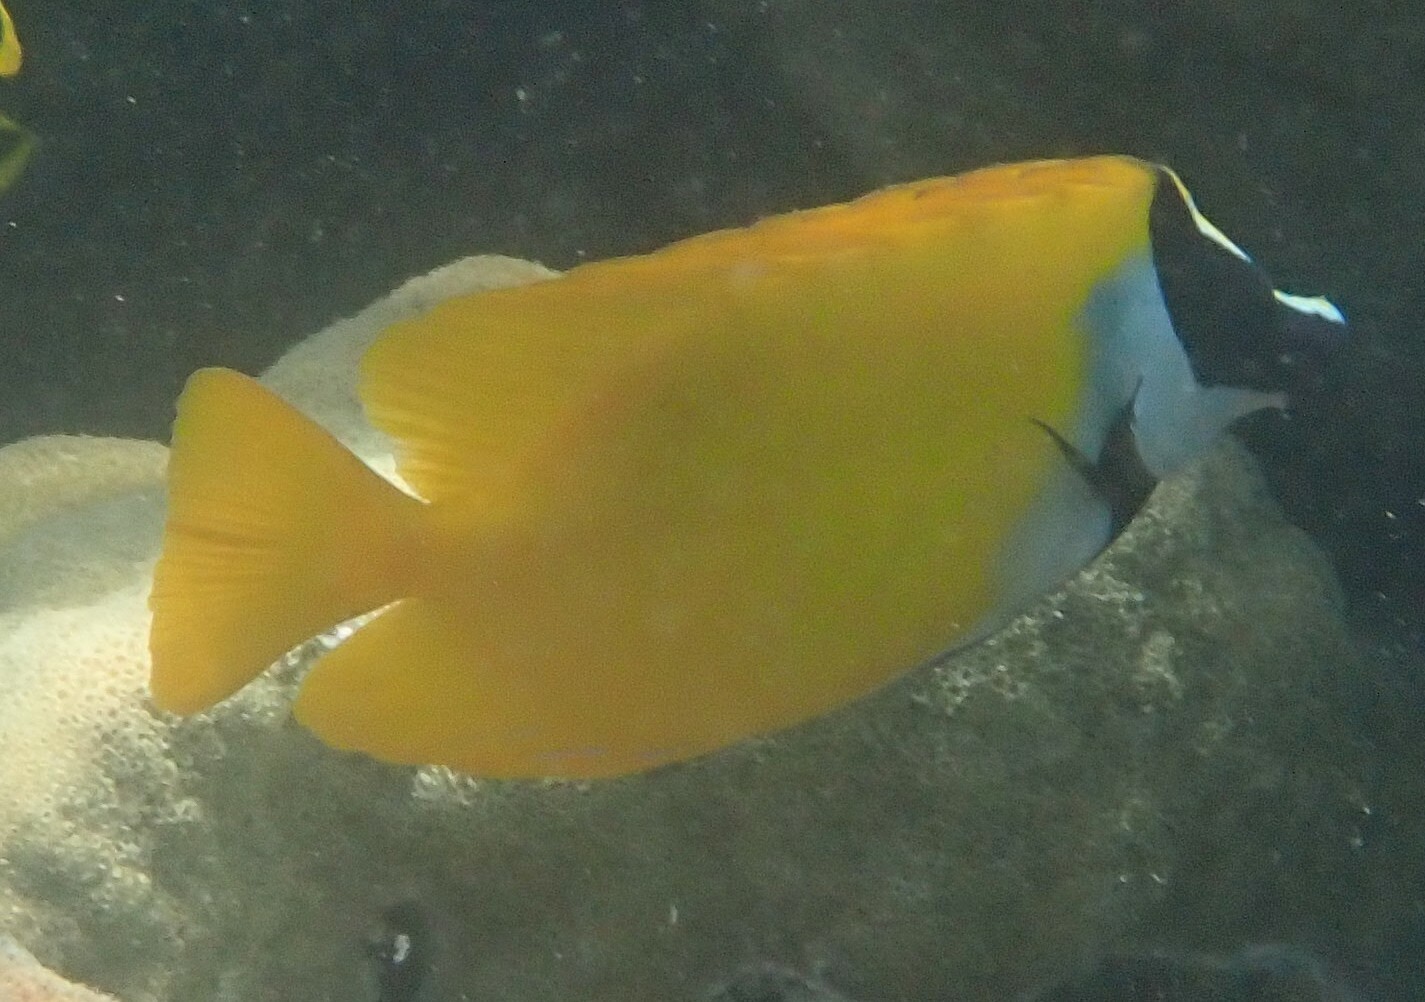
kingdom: Animalia
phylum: Chordata
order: Perciformes
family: Siganidae
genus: Siganus
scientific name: Siganus vulpinus
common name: Foxface
